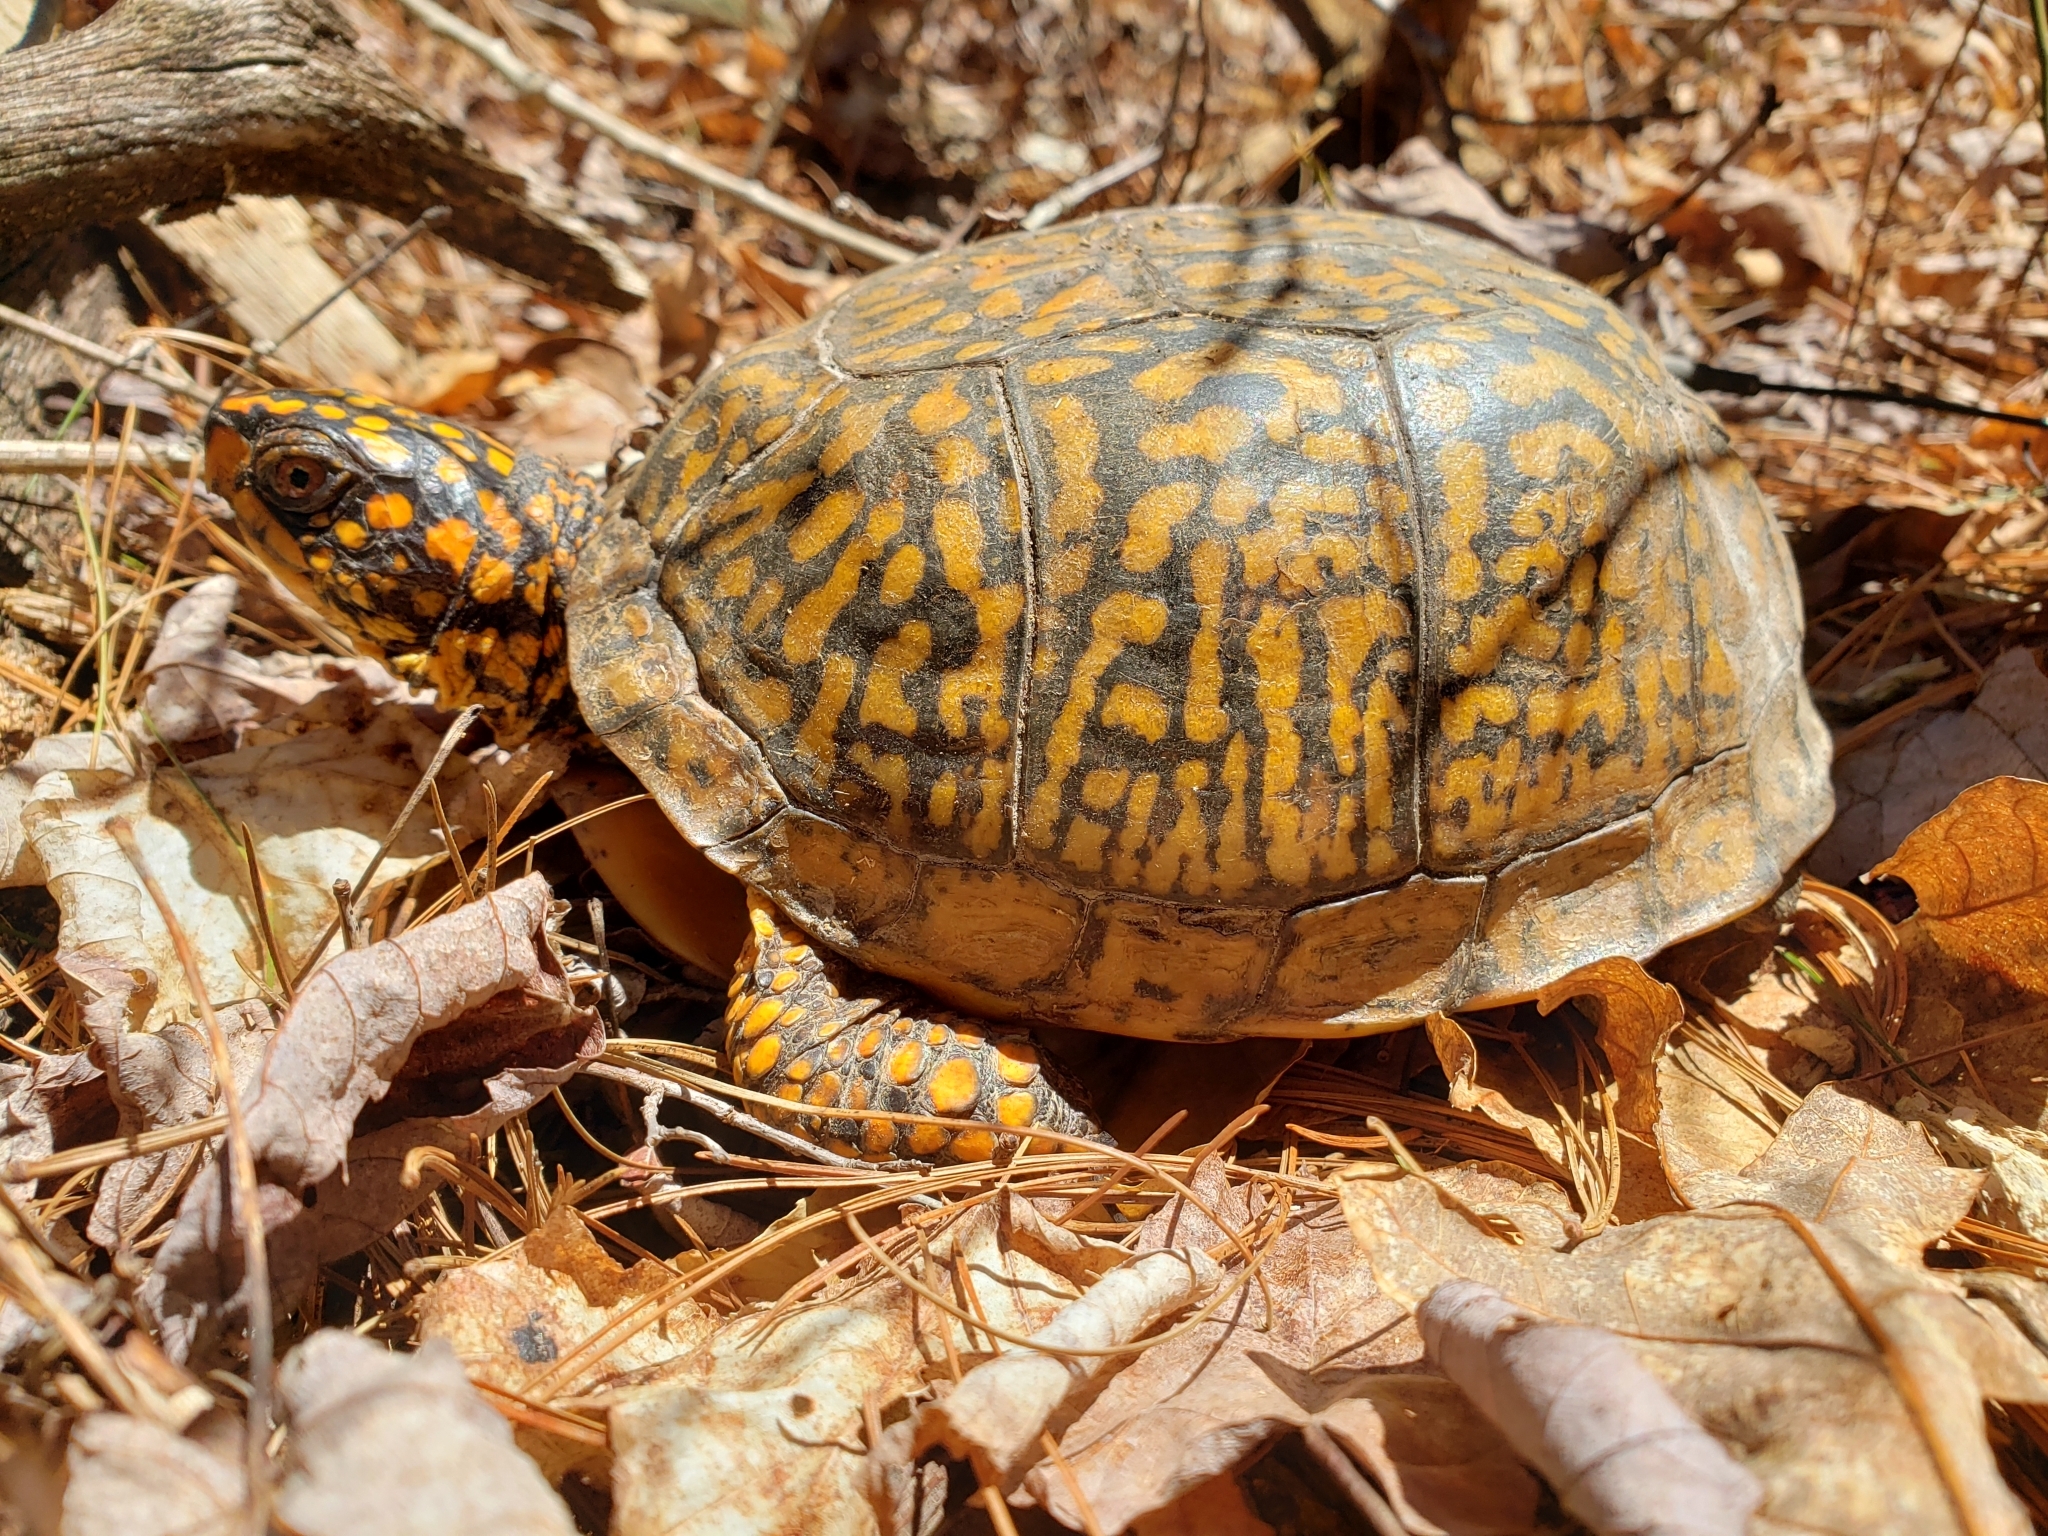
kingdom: Animalia
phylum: Chordata
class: Testudines
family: Emydidae
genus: Terrapene
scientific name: Terrapene carolina
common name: Common box turtle
